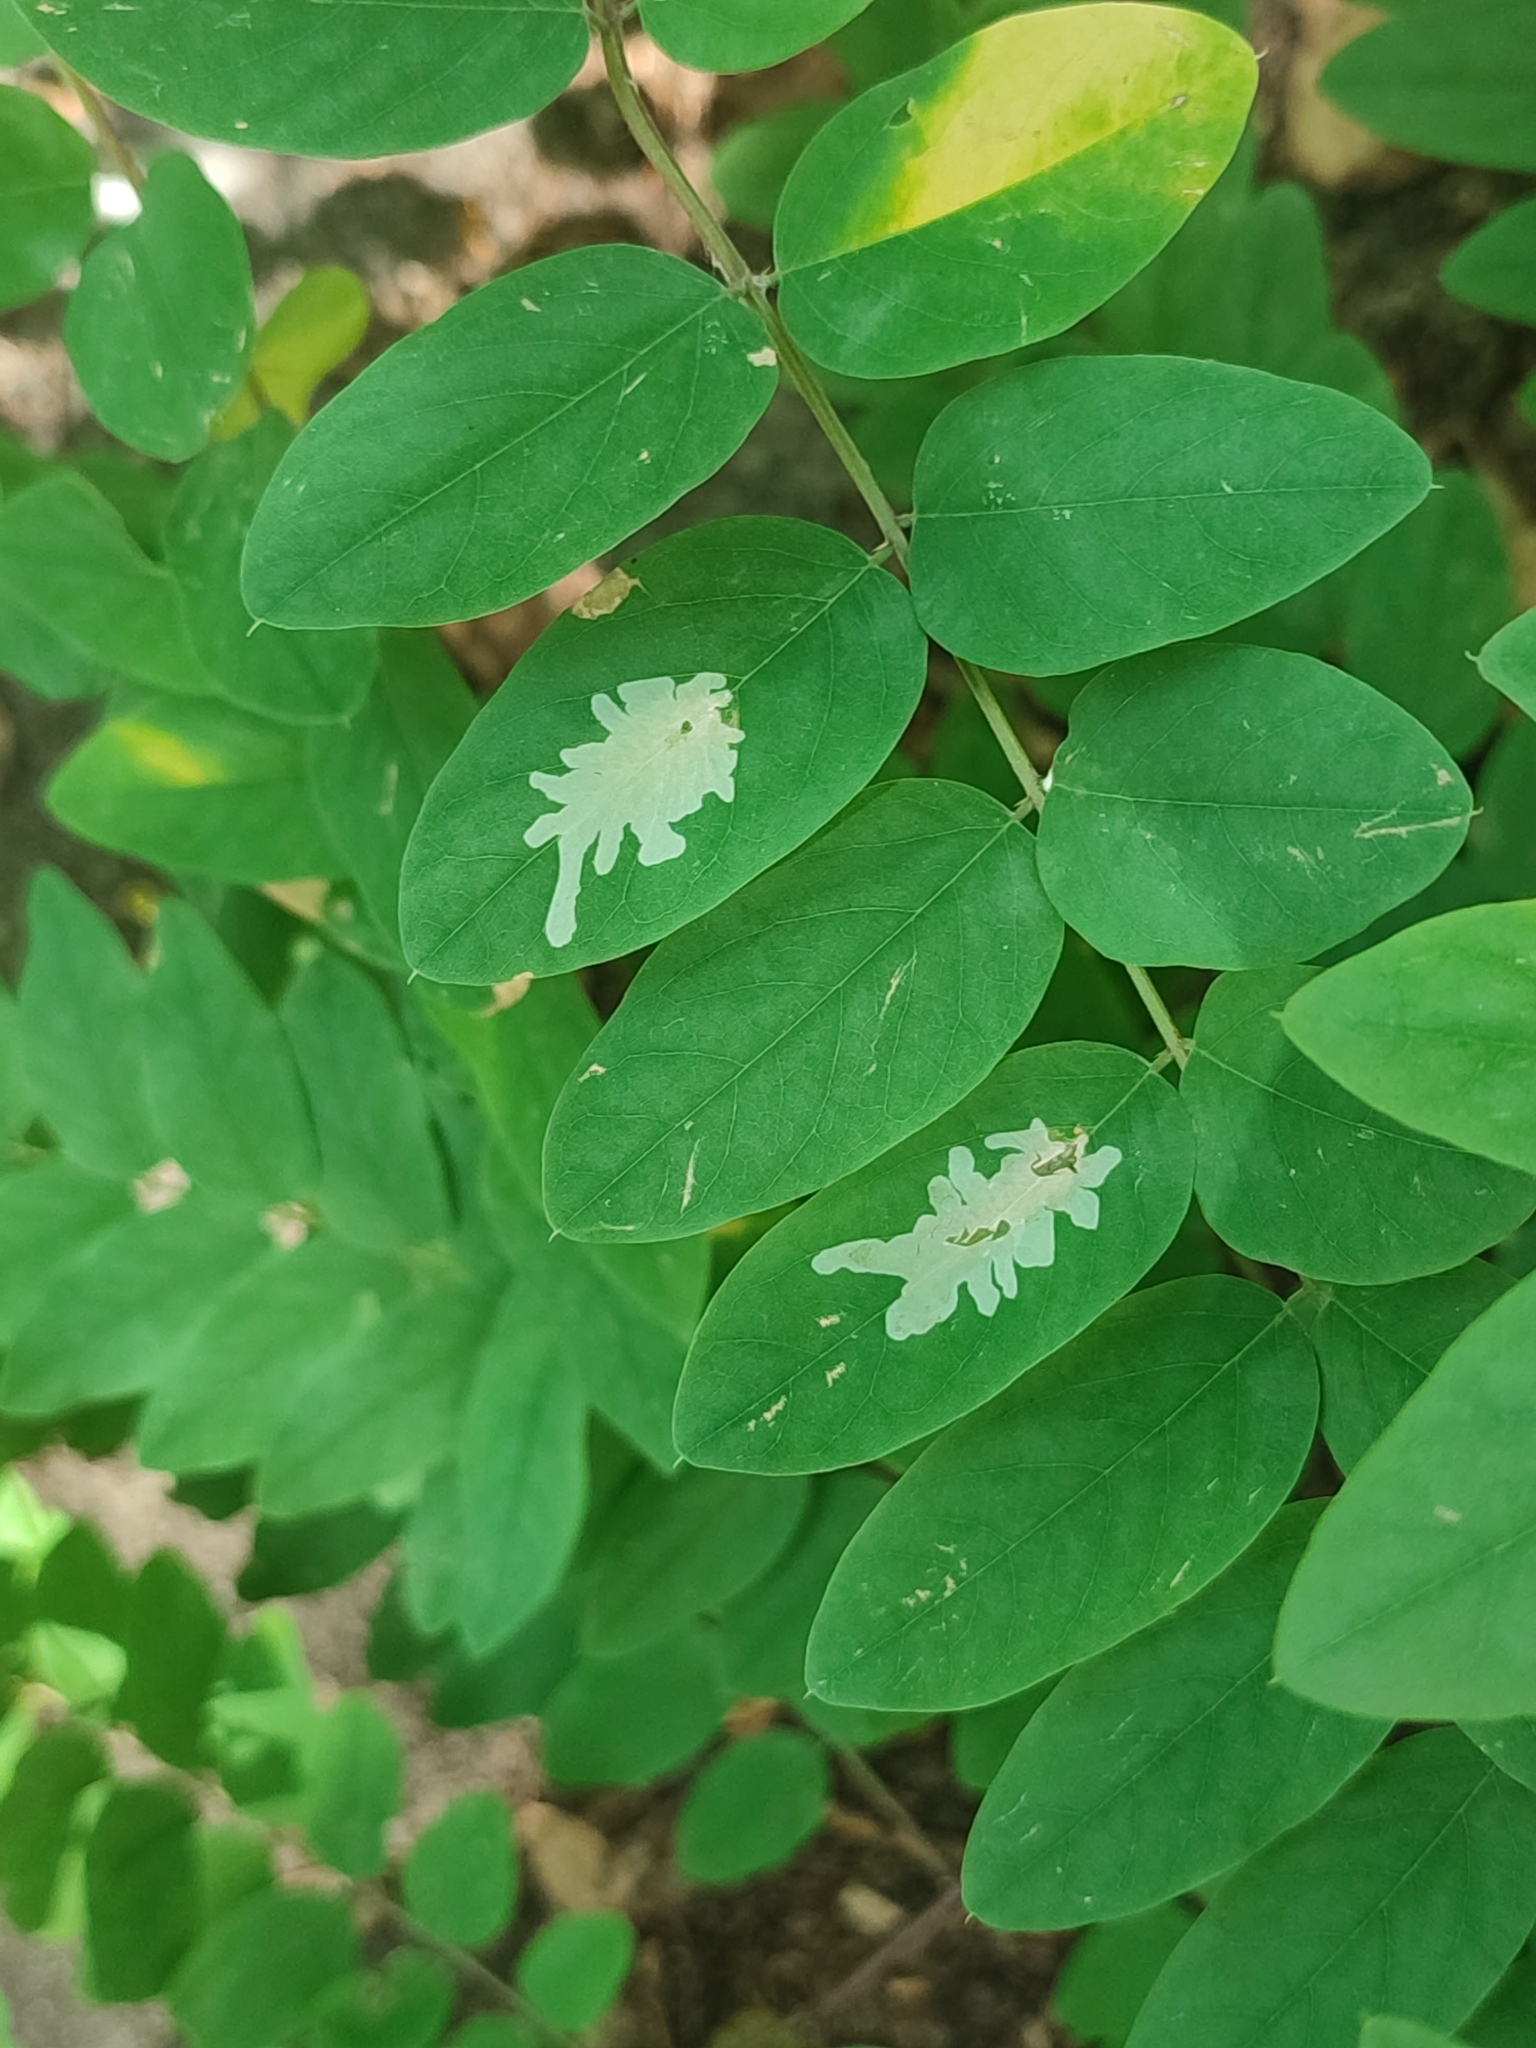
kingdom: Animalia
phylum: Arthropoda
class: Insecta
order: Lepidoptera
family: Gracillariidae
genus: Parectopa
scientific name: Parectopa robiniella
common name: Locust digitate leafminer
